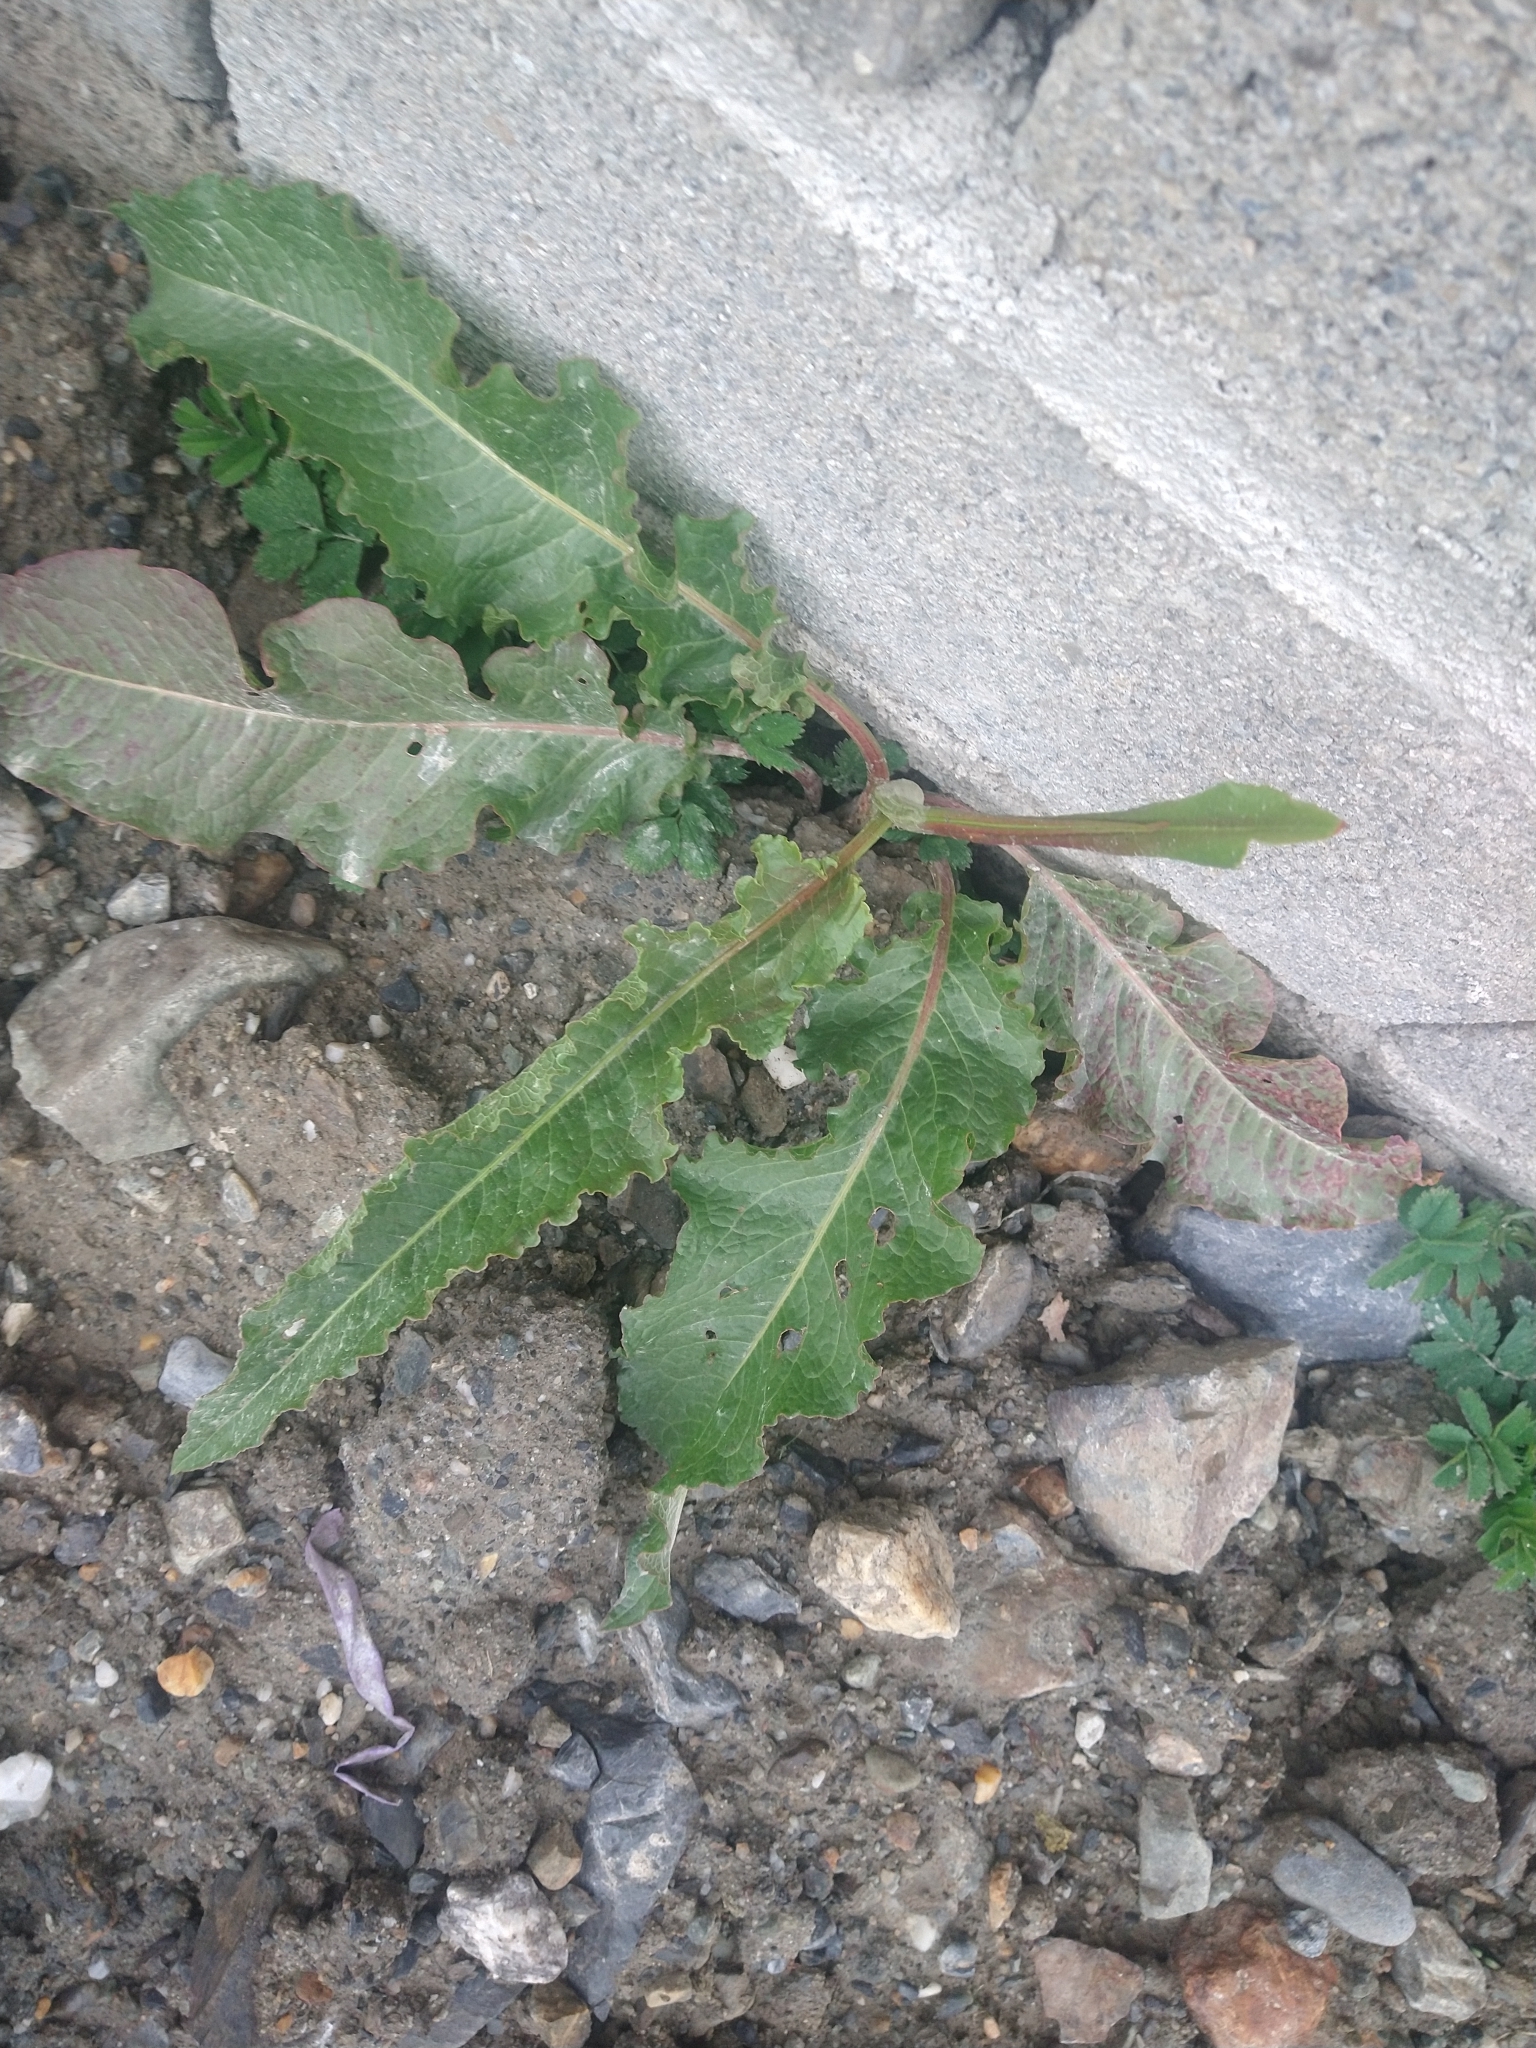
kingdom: Plantae
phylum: Tracheophyta
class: Magnoliopsida
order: Caryophyllales
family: Polygonaceae
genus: Rumex
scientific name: Rumex crispus
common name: Curled dock
